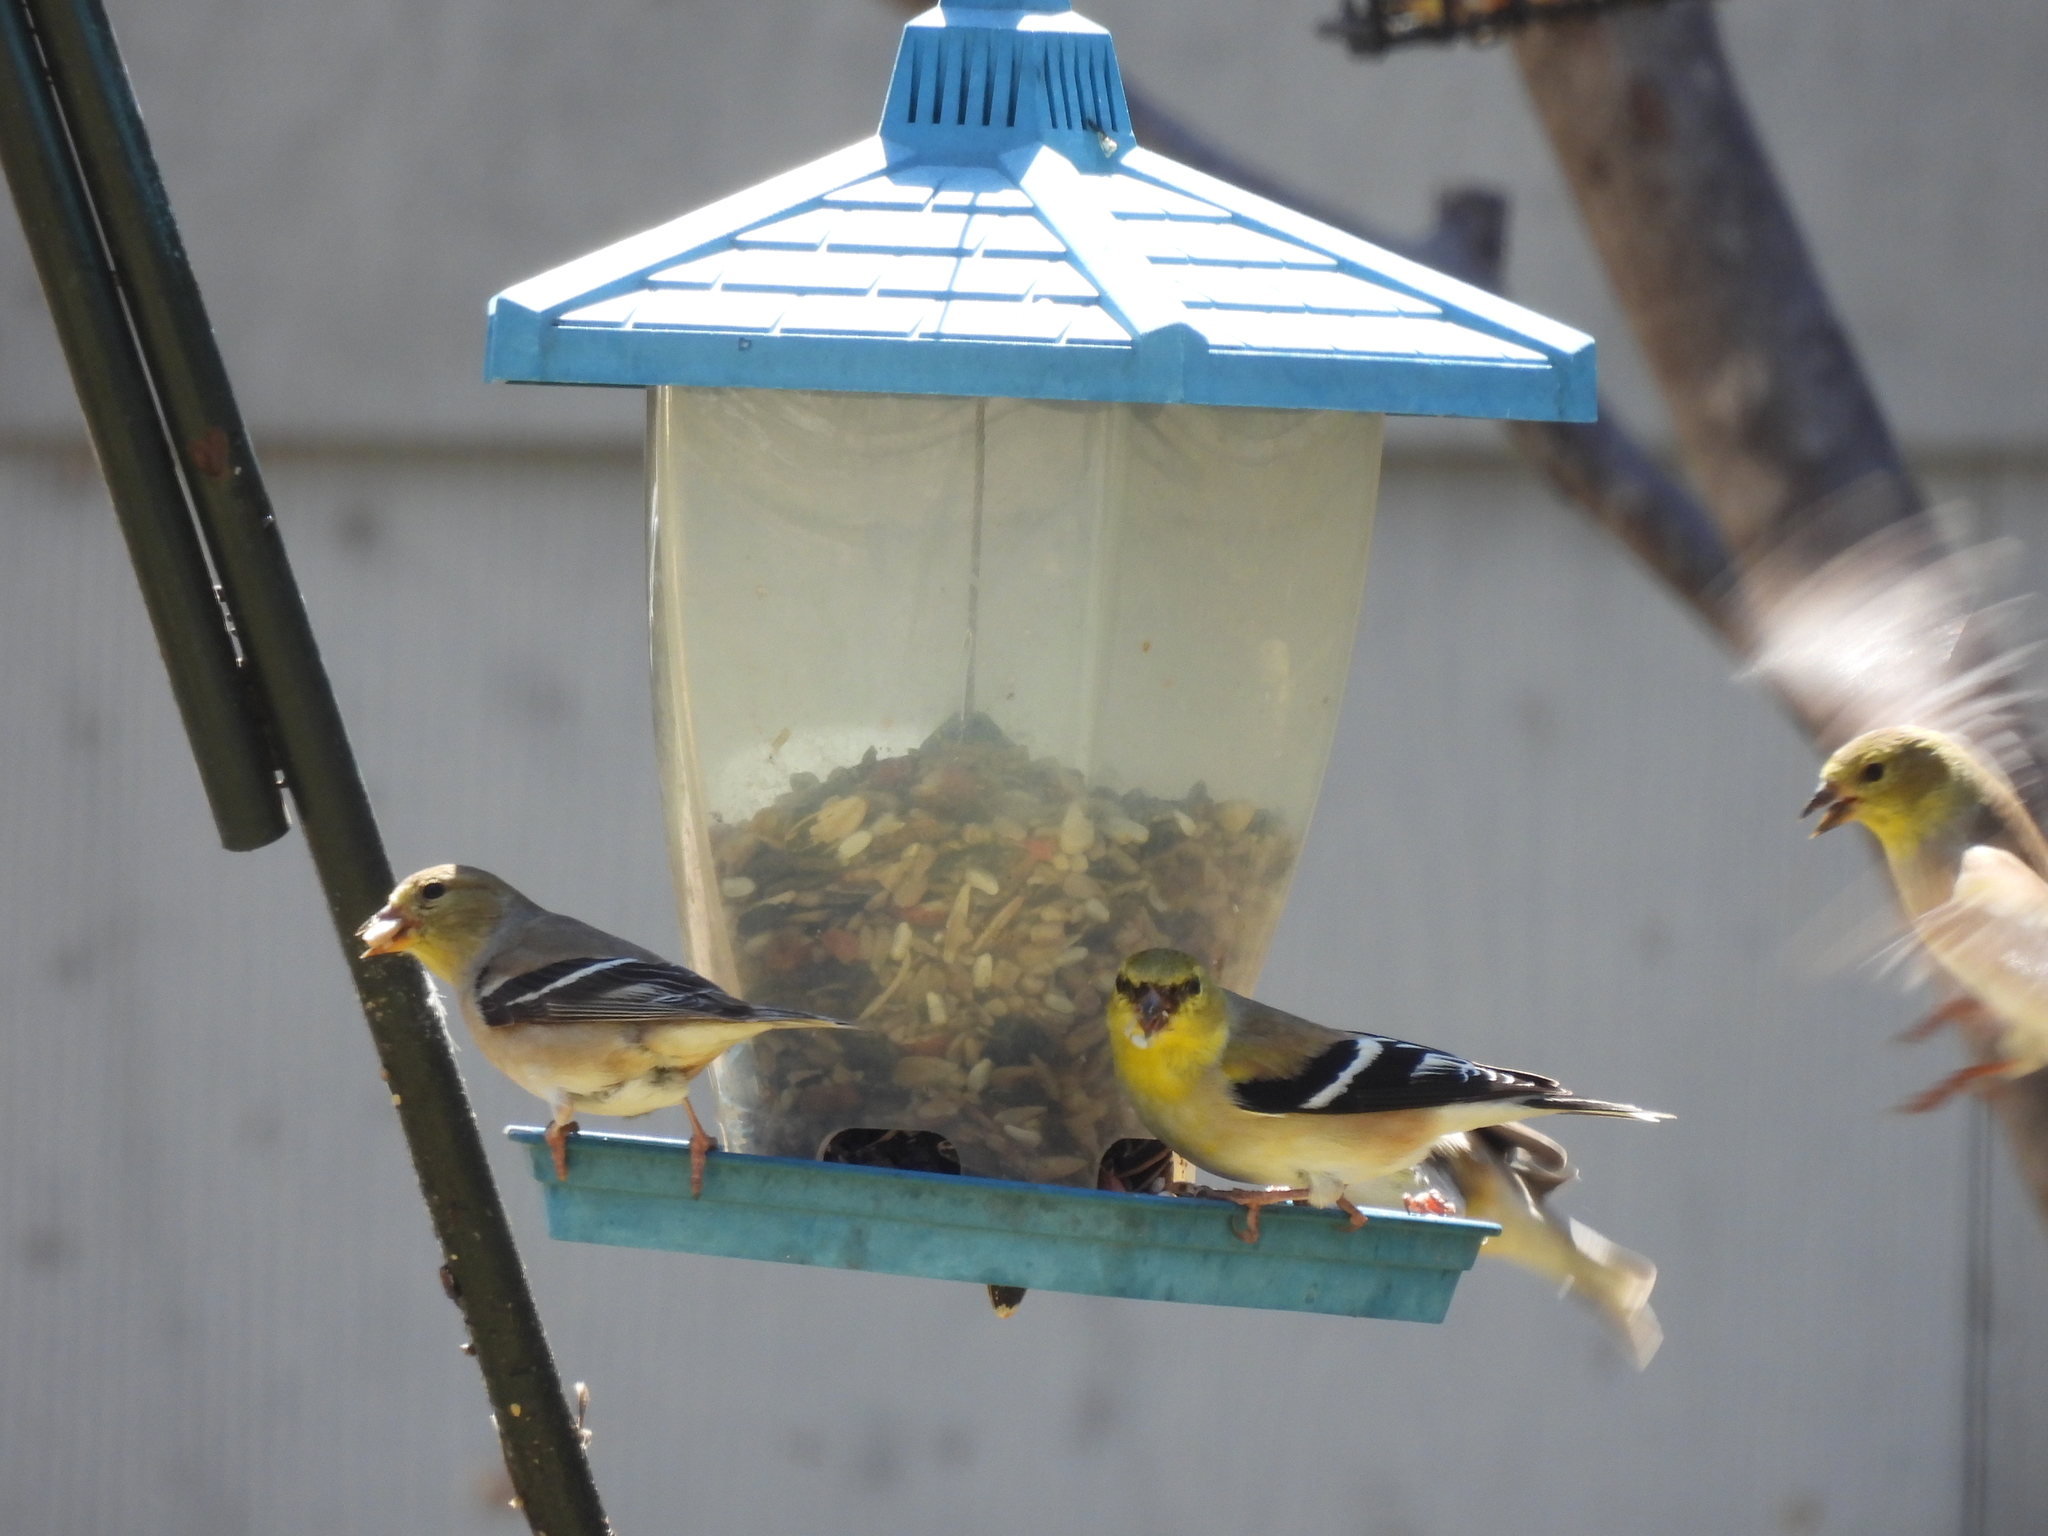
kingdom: Animalia
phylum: Chordata
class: Aves
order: Passeriformes
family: Fringillidae
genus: Spinus
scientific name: Spinus tristis
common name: American goldfinch
